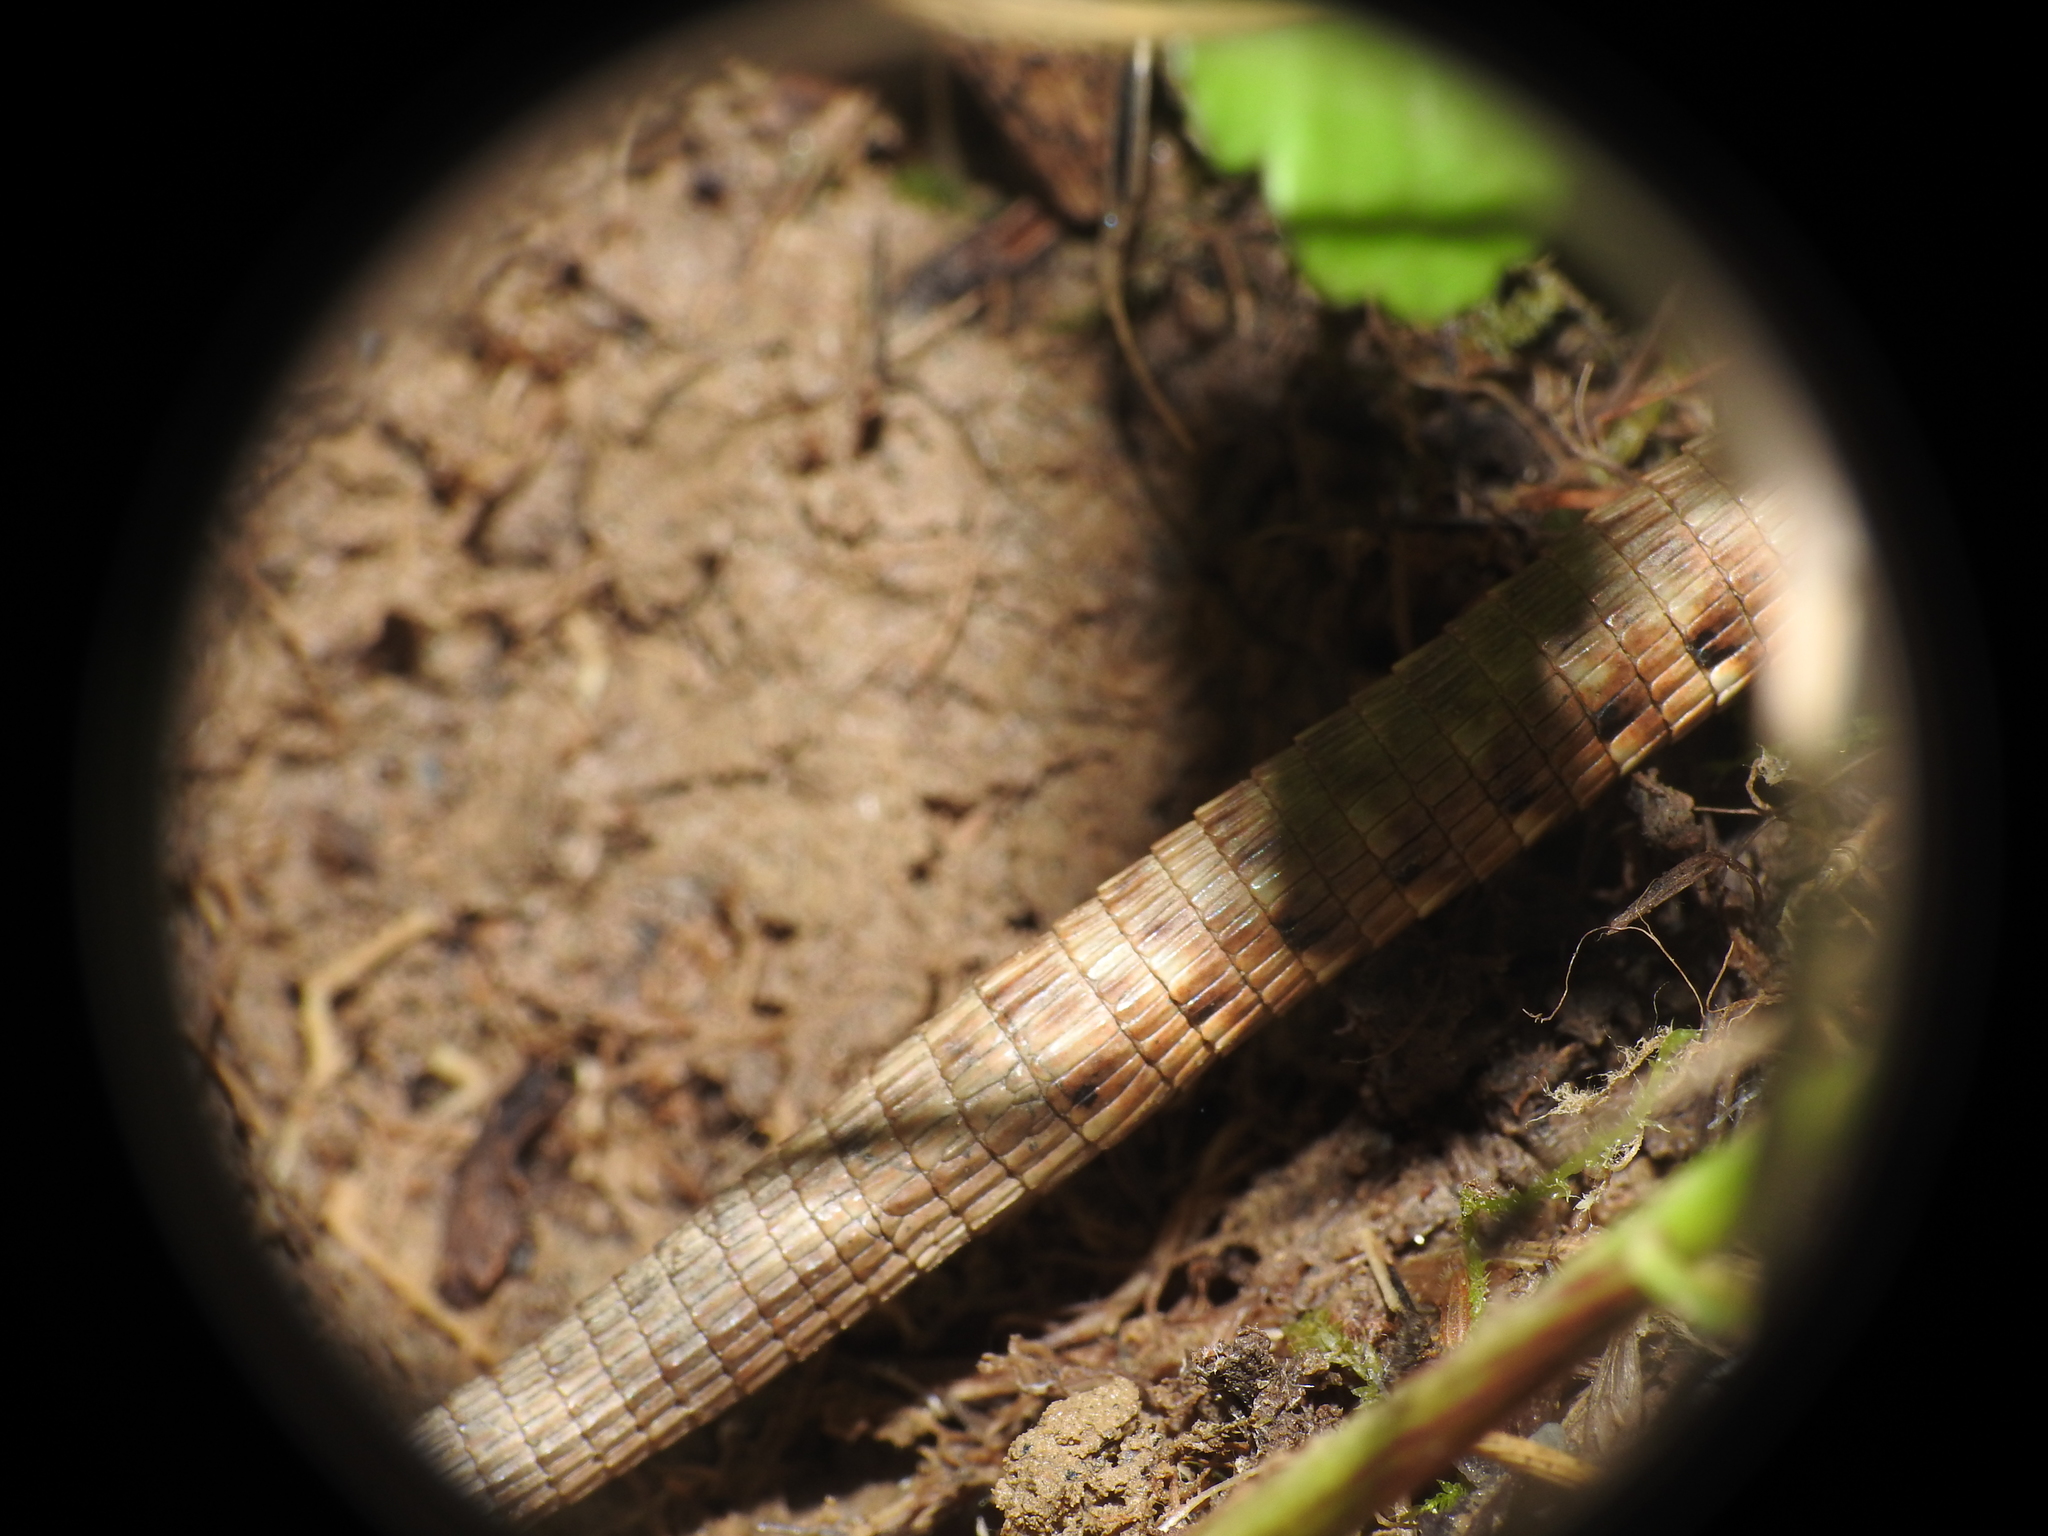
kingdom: Animalia
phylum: Chordata
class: Squamata
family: Lacertidae
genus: Podarcis
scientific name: Podarcis muralis
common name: Common wall lizard
